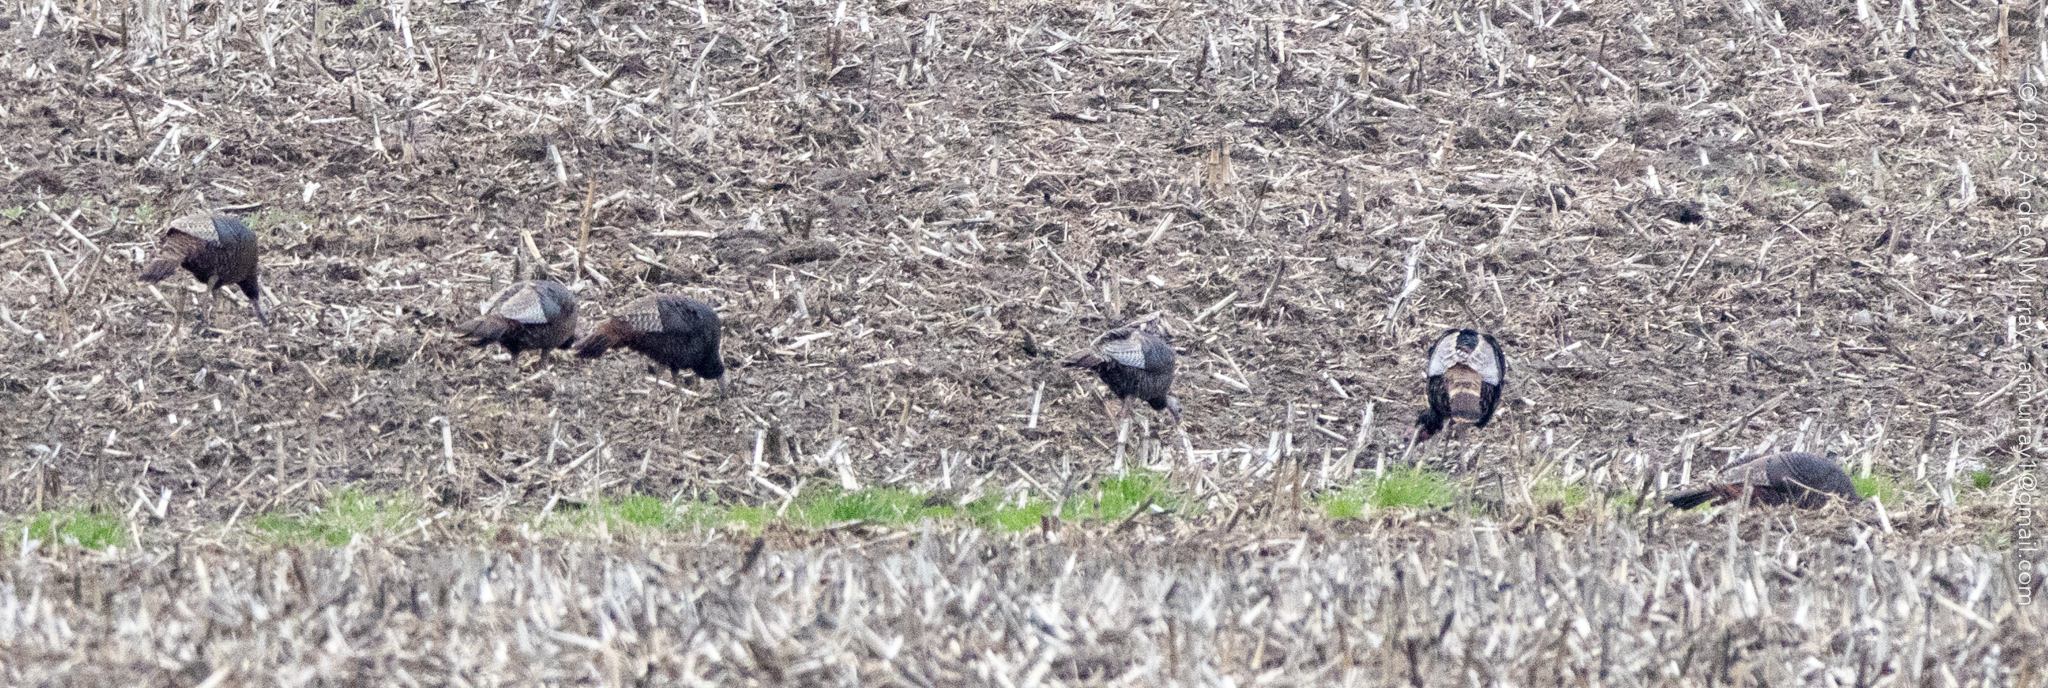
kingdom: Animalia
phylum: Chordata
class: Aves
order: Galliformes
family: Phasianidae
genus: Meleagris
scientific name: Meleagris gallopavo
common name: Wild turkey
